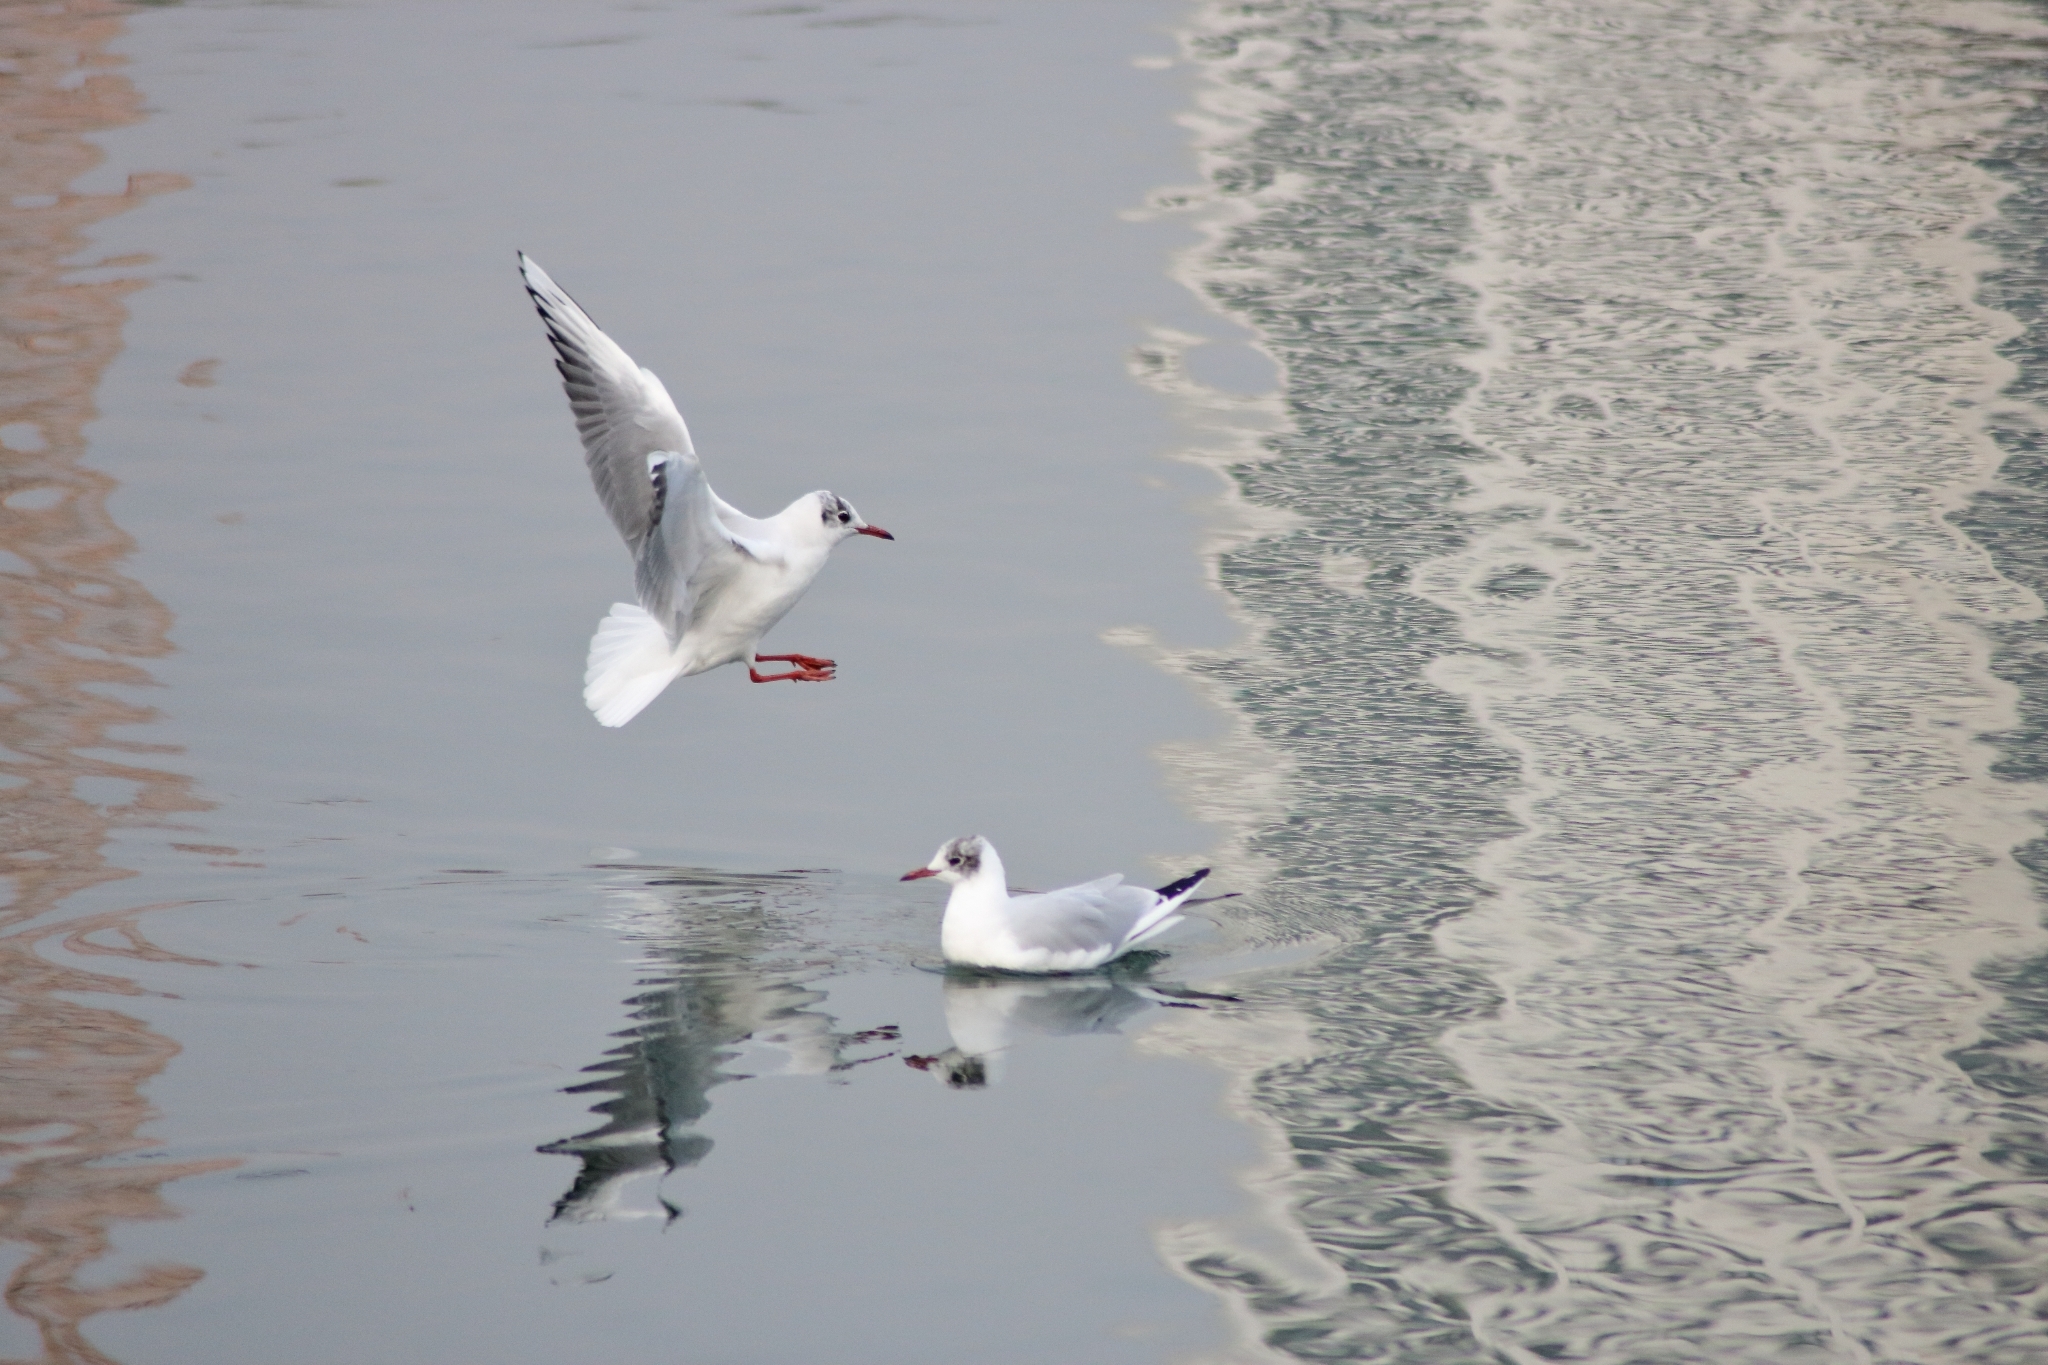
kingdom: Animalia
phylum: Chordata
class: Aves
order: Charadriiformes
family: Laridae
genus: Chroicocephalus
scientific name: Chroicocephalus ridibundus
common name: Black-headed gull
